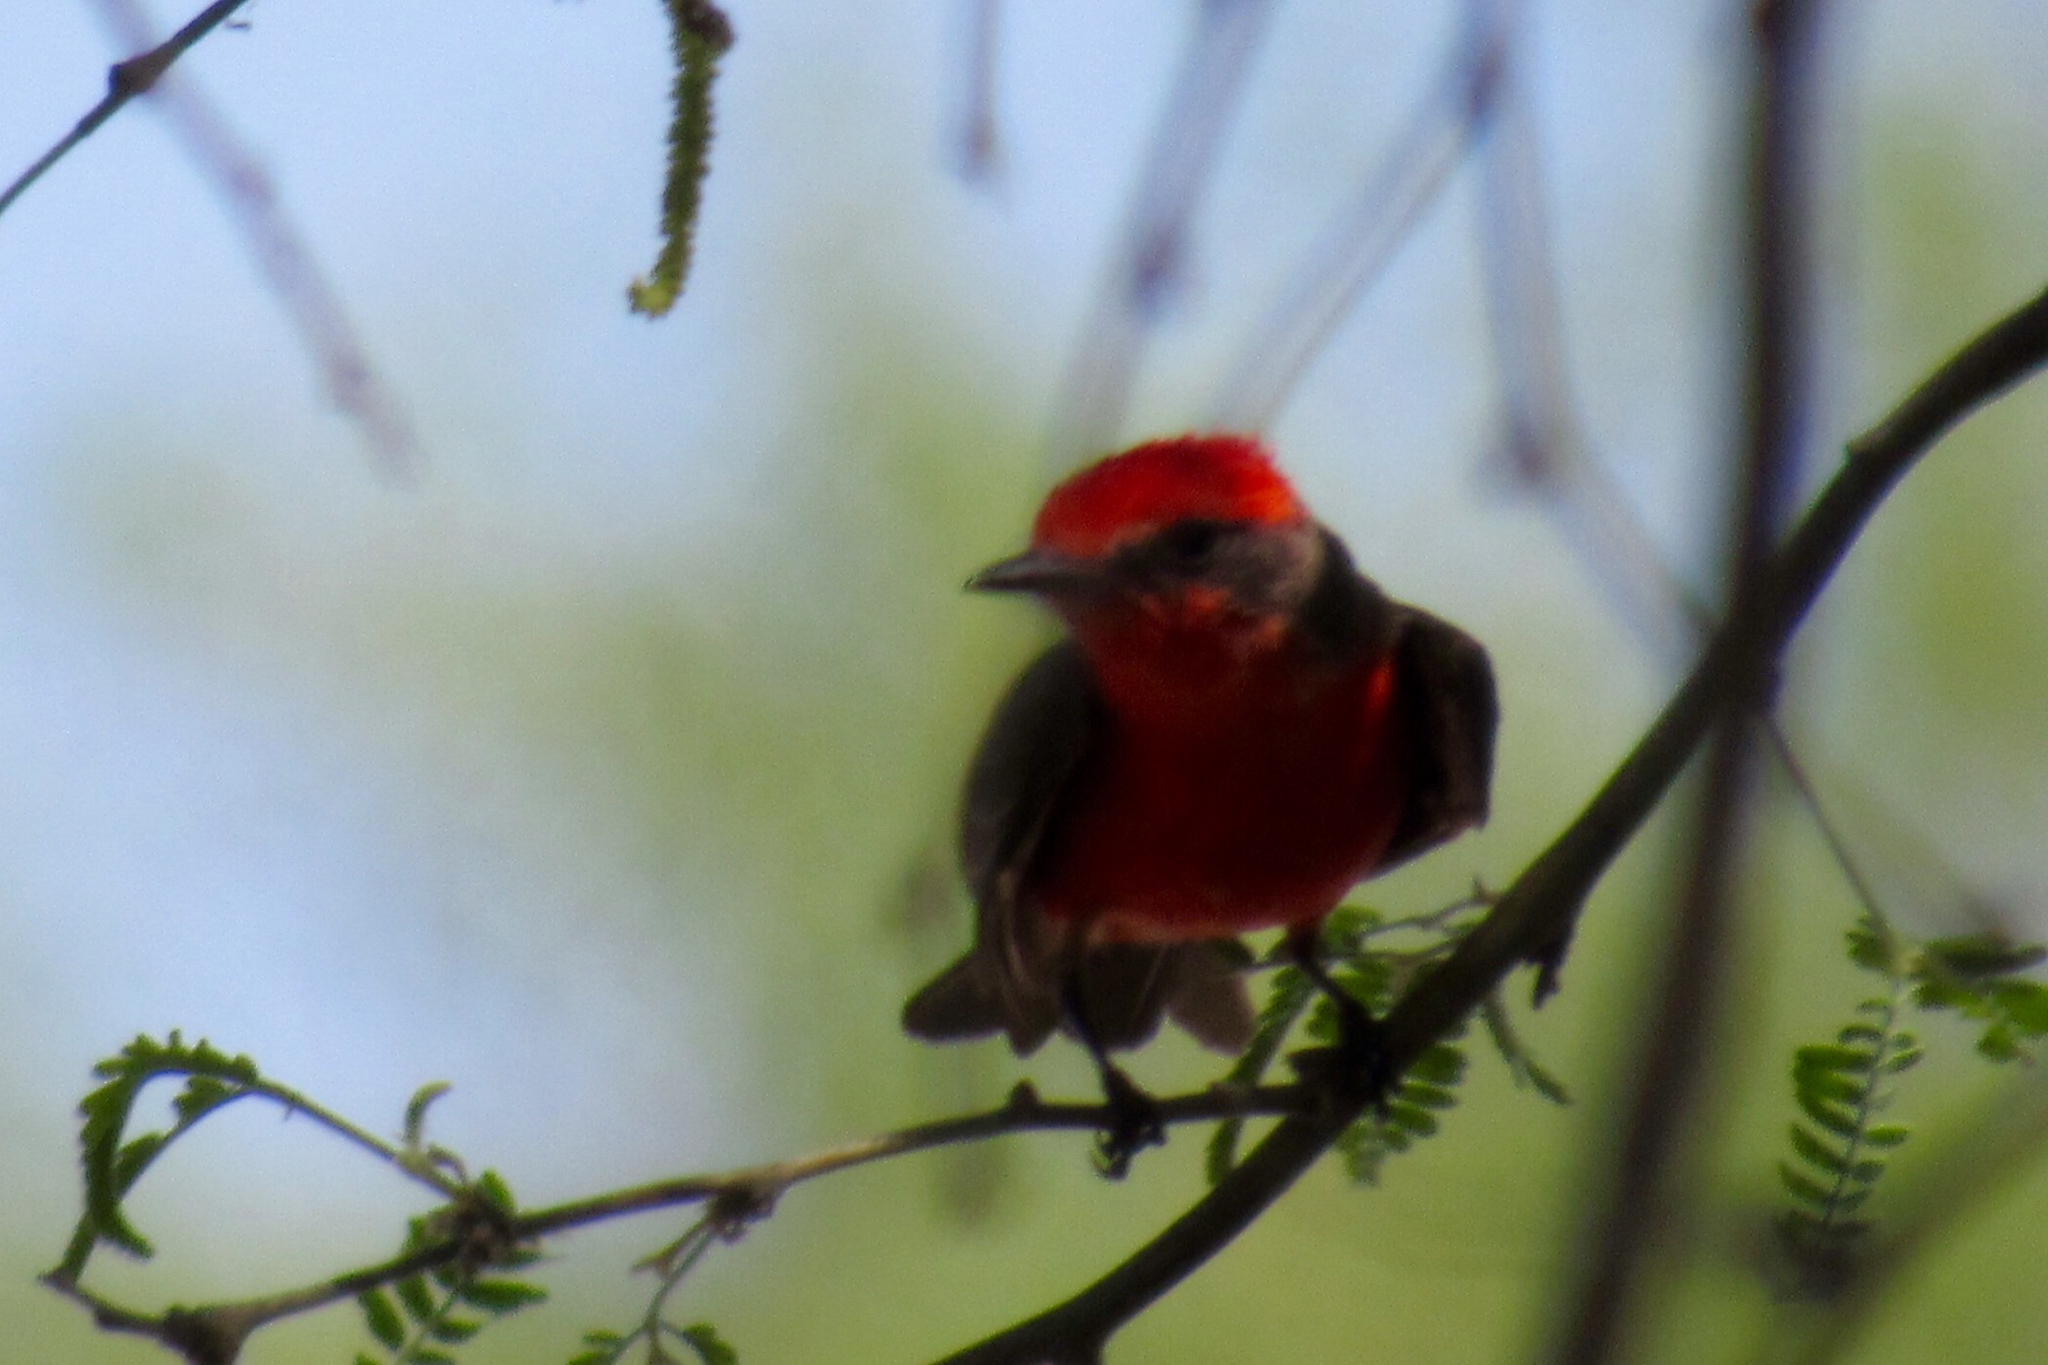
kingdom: Animalia
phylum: Chordata
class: Aves
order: Passeriformes
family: Tyrannidae
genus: Pyrocephalus
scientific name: Pyrocephalus rubinus
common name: Vermilion flycatcher
